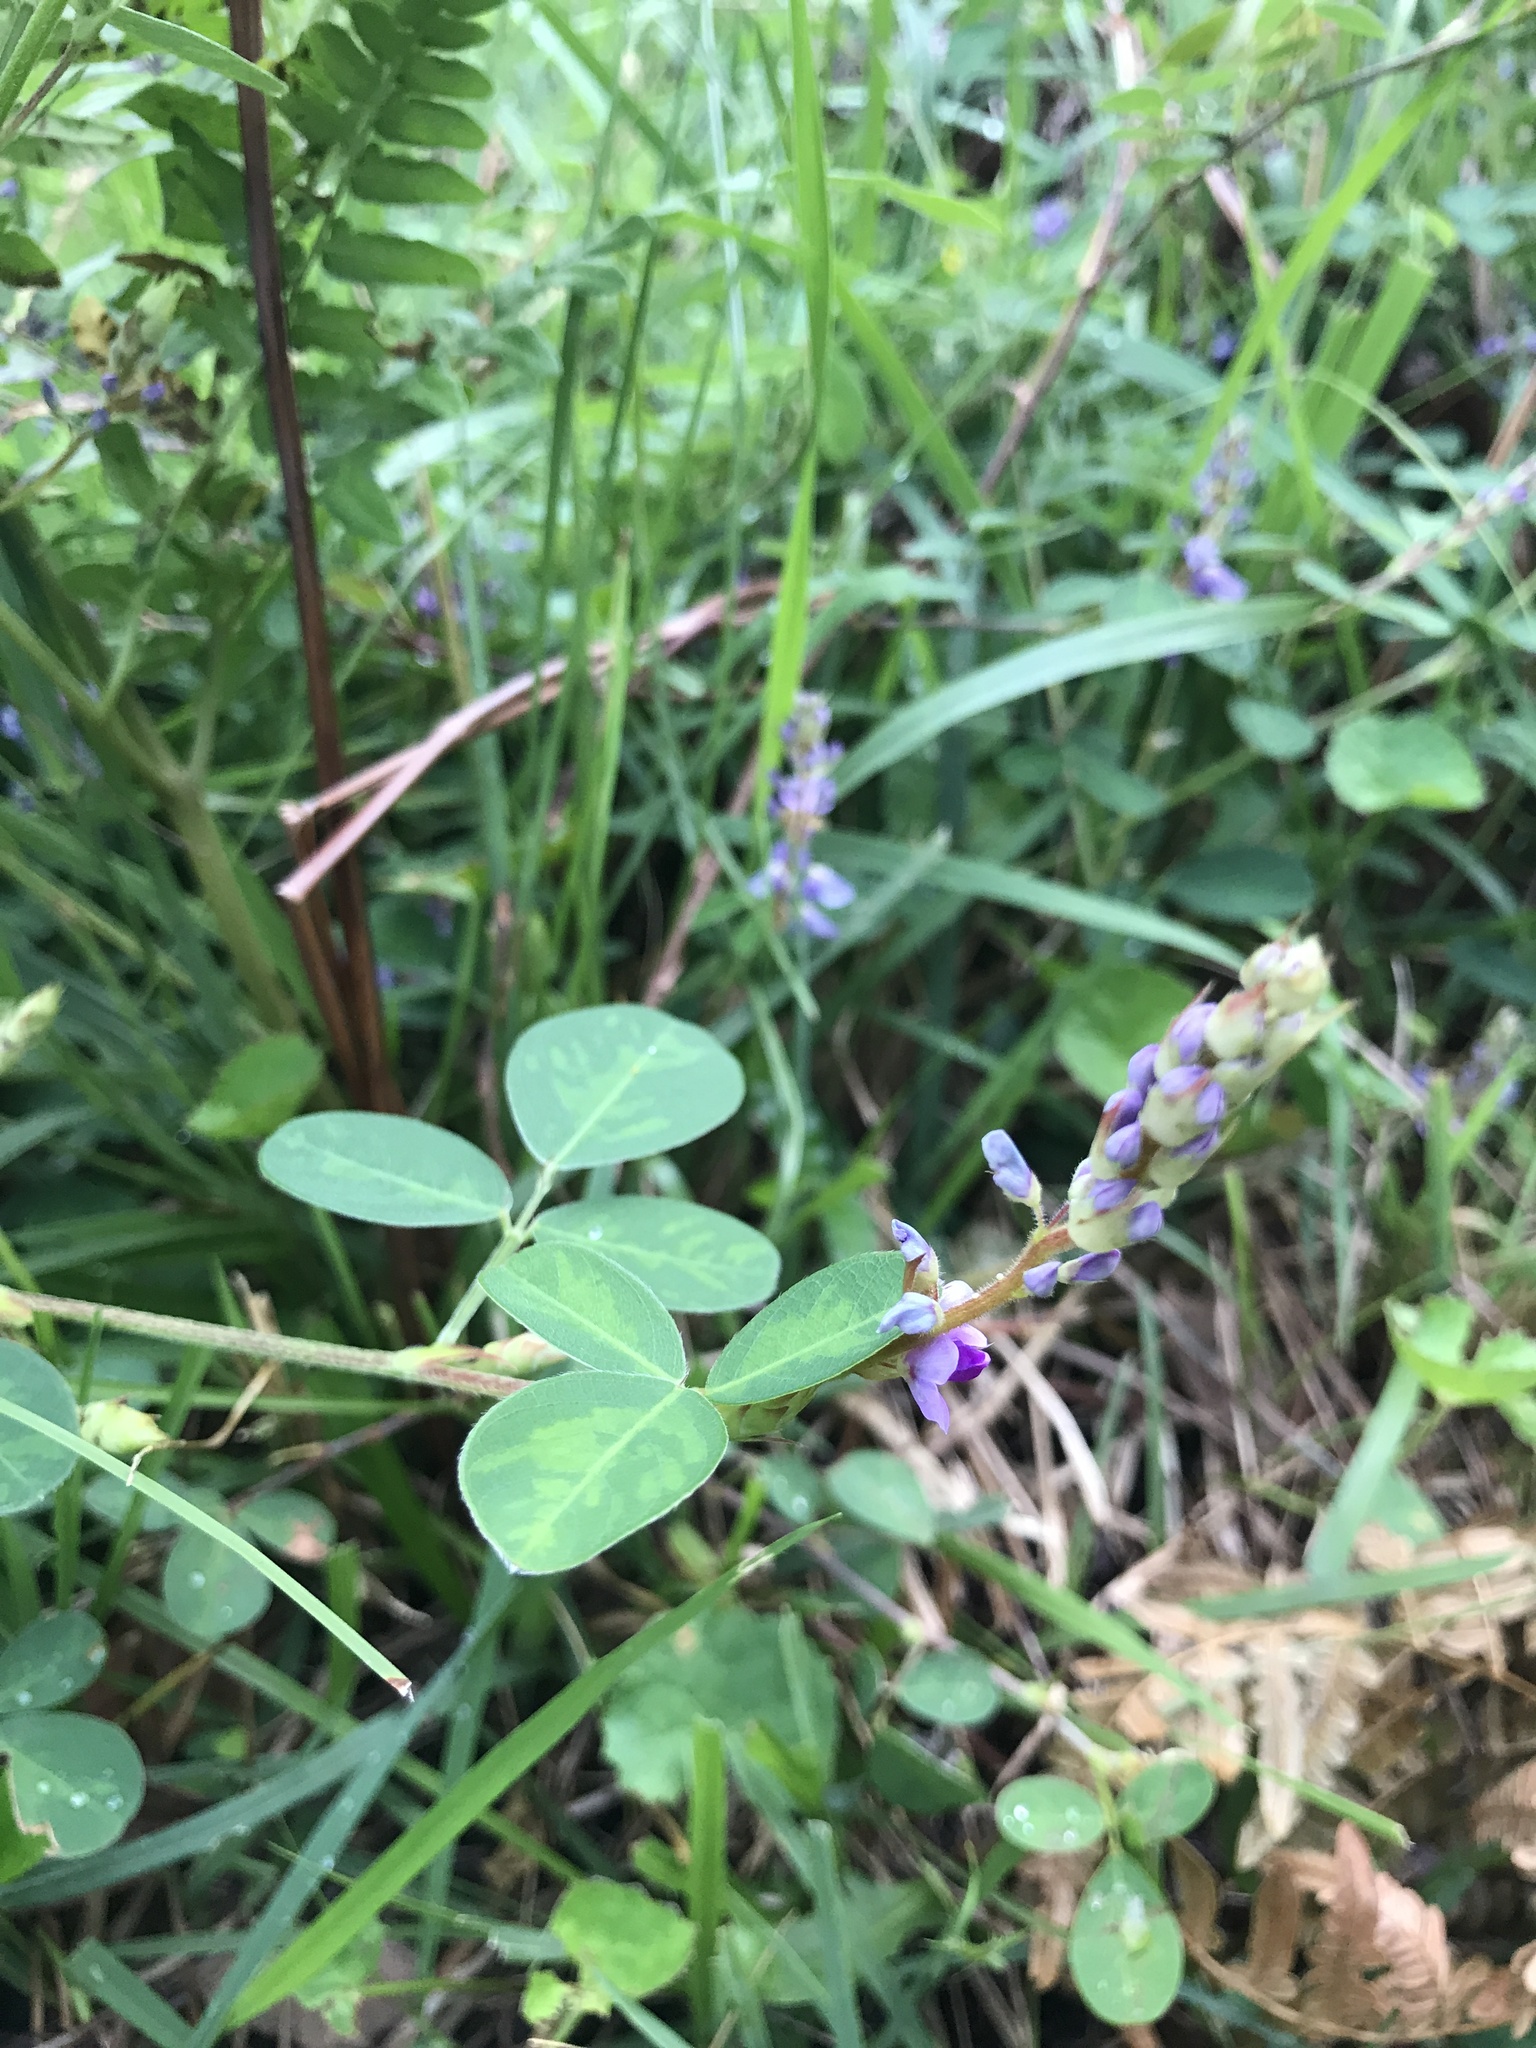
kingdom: Plantae
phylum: Tracheophyta
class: Magnoliopsida
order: Fabales
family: Fabaceae
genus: Grona
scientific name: Grona heterocarpos
